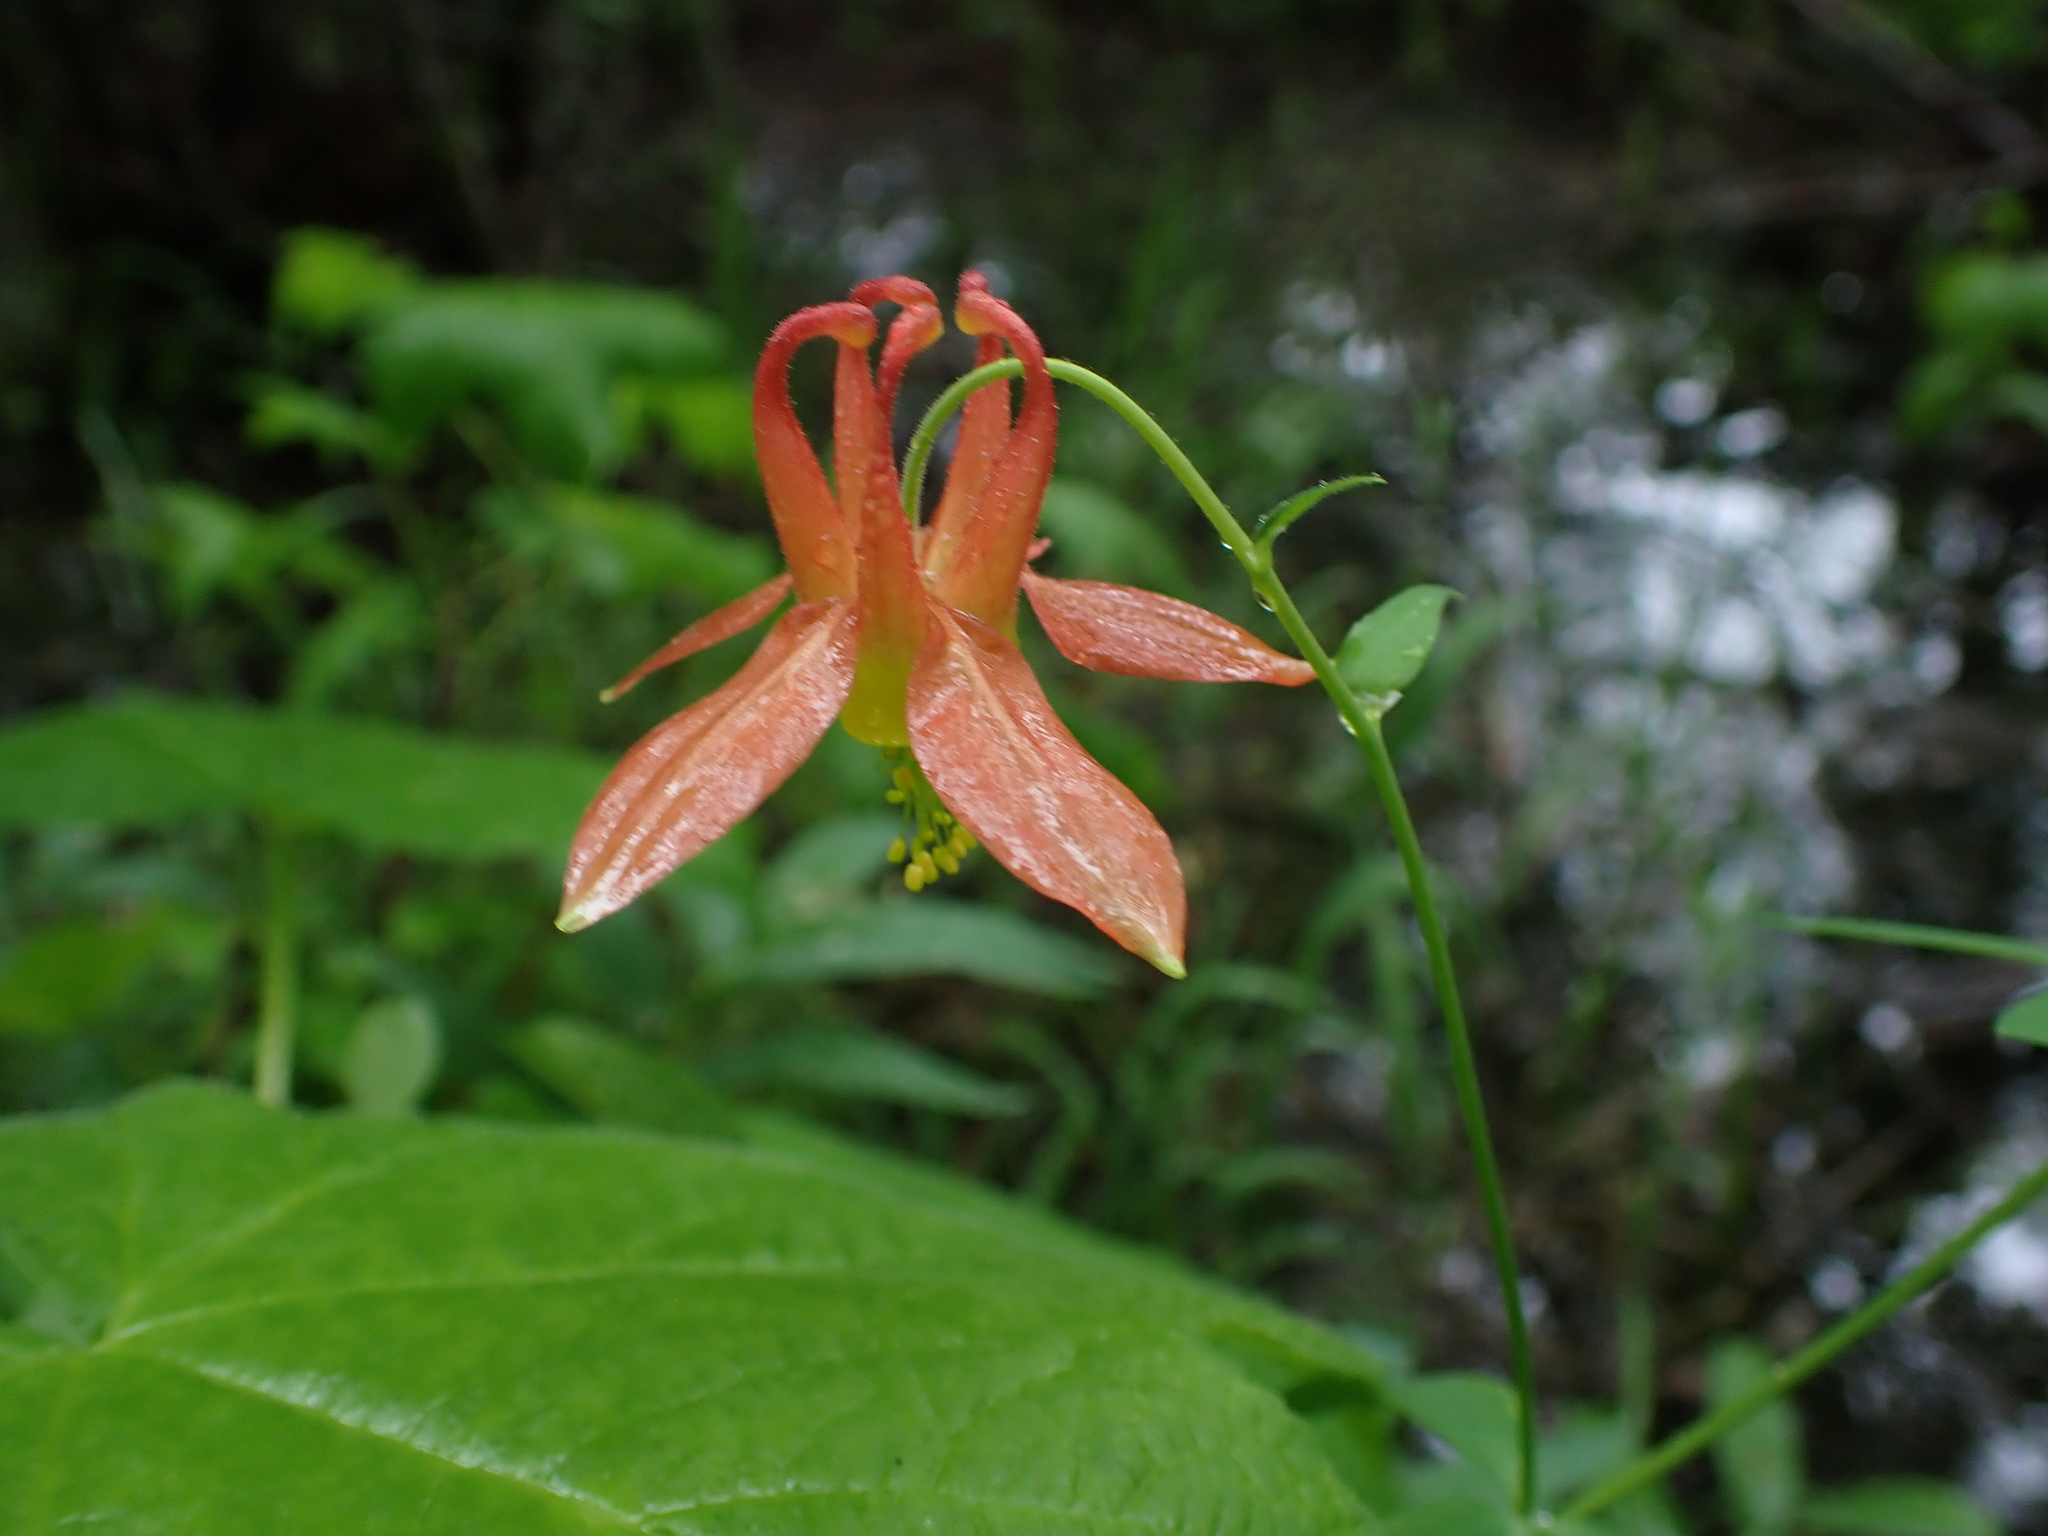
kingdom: Plantae
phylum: Tracheophyta
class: Magnoliopsida
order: Ranunculales
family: Ranunculaceae
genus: Aquilegia
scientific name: Aquilegia formosa
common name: Sitka columbine
